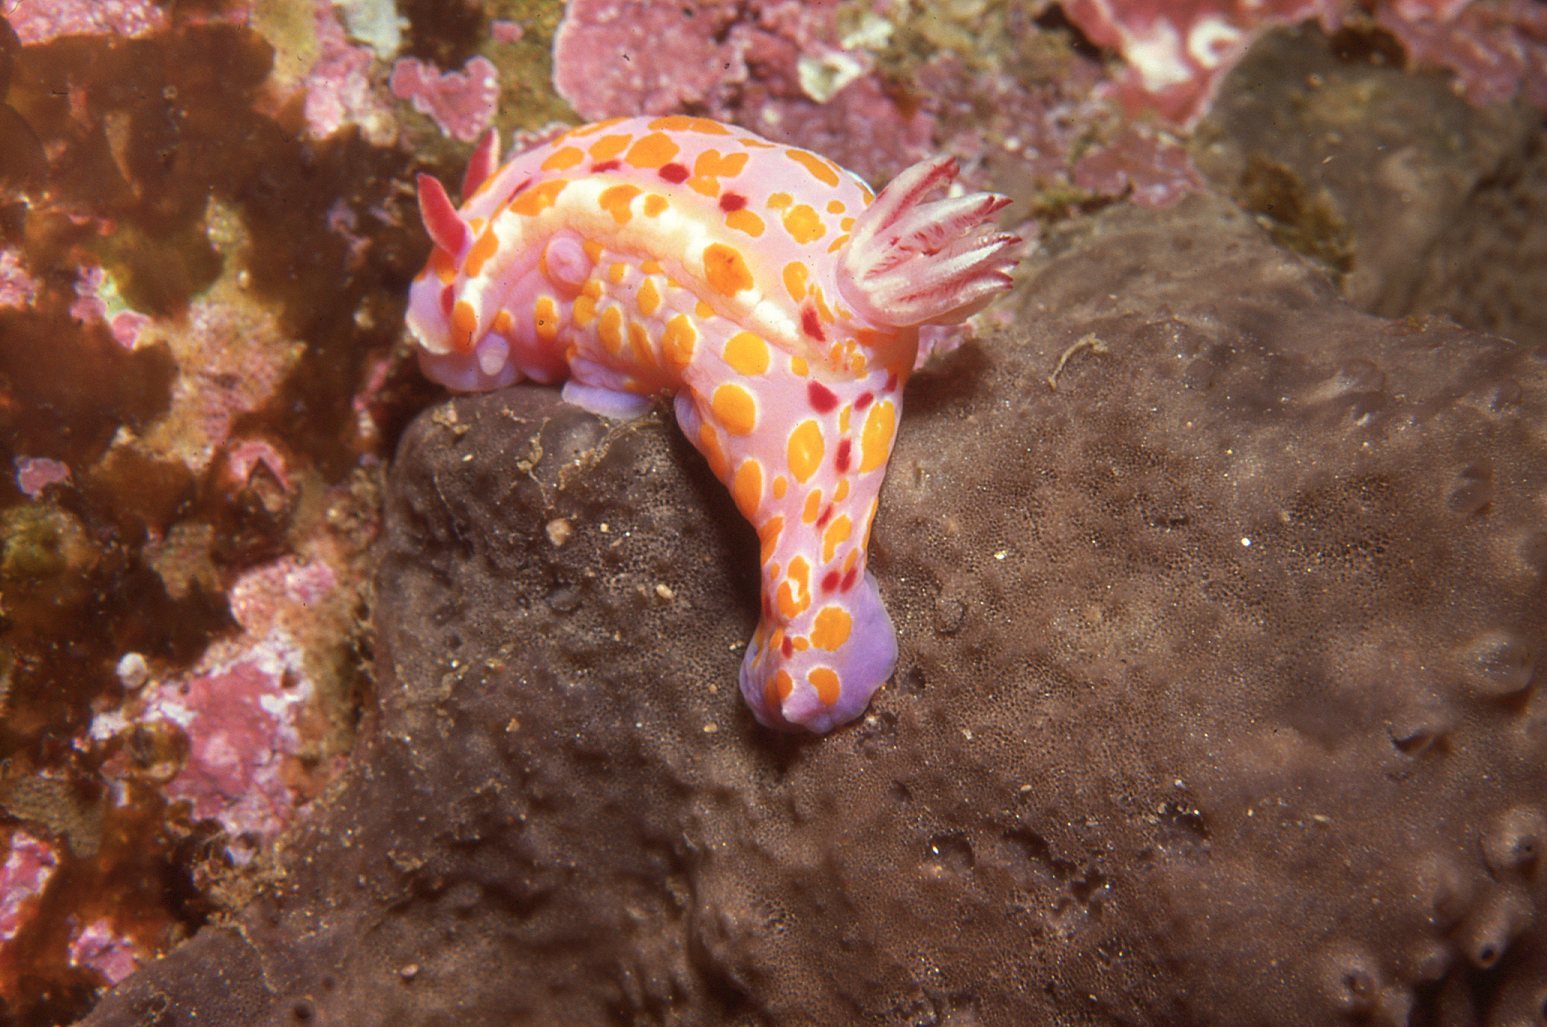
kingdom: Animalia
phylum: Mollusca
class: Gastropoda
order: Nudibranchia
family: Chromodorididae
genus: Ceratosoma
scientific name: Ceratosoma amoenum
